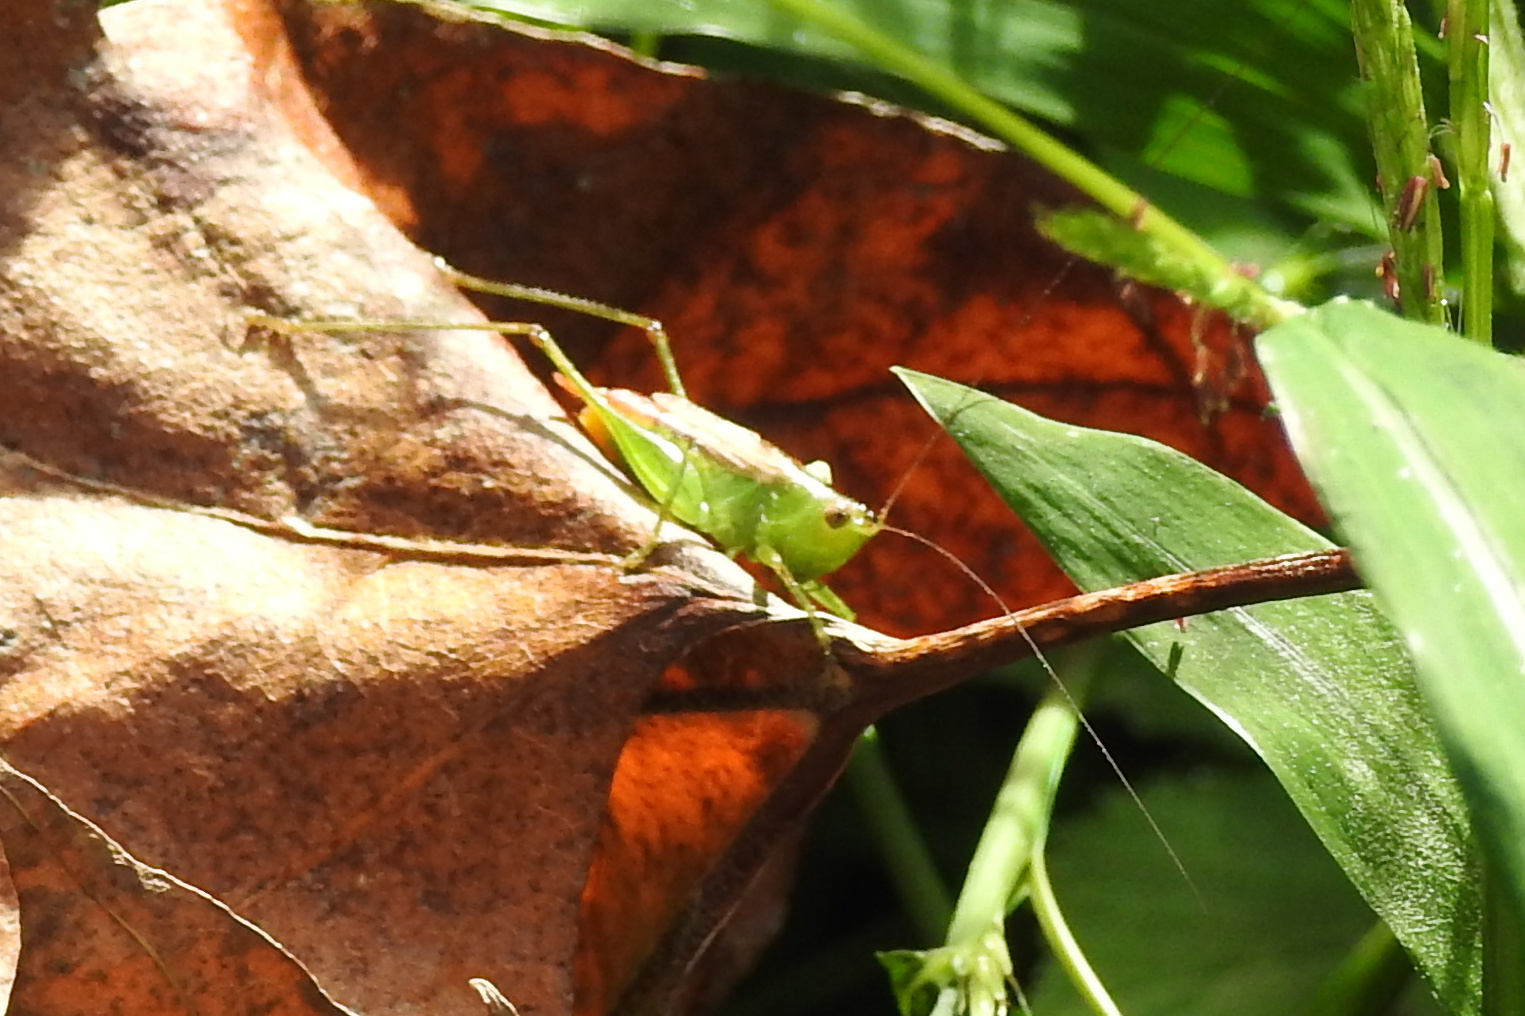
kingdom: Animalia
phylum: Arthropoda
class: Insecta
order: Orthoptera
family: Tettigoniidae
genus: Conocephalus
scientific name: Conocephalus brevipennis
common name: Short-winged meadow katydid
